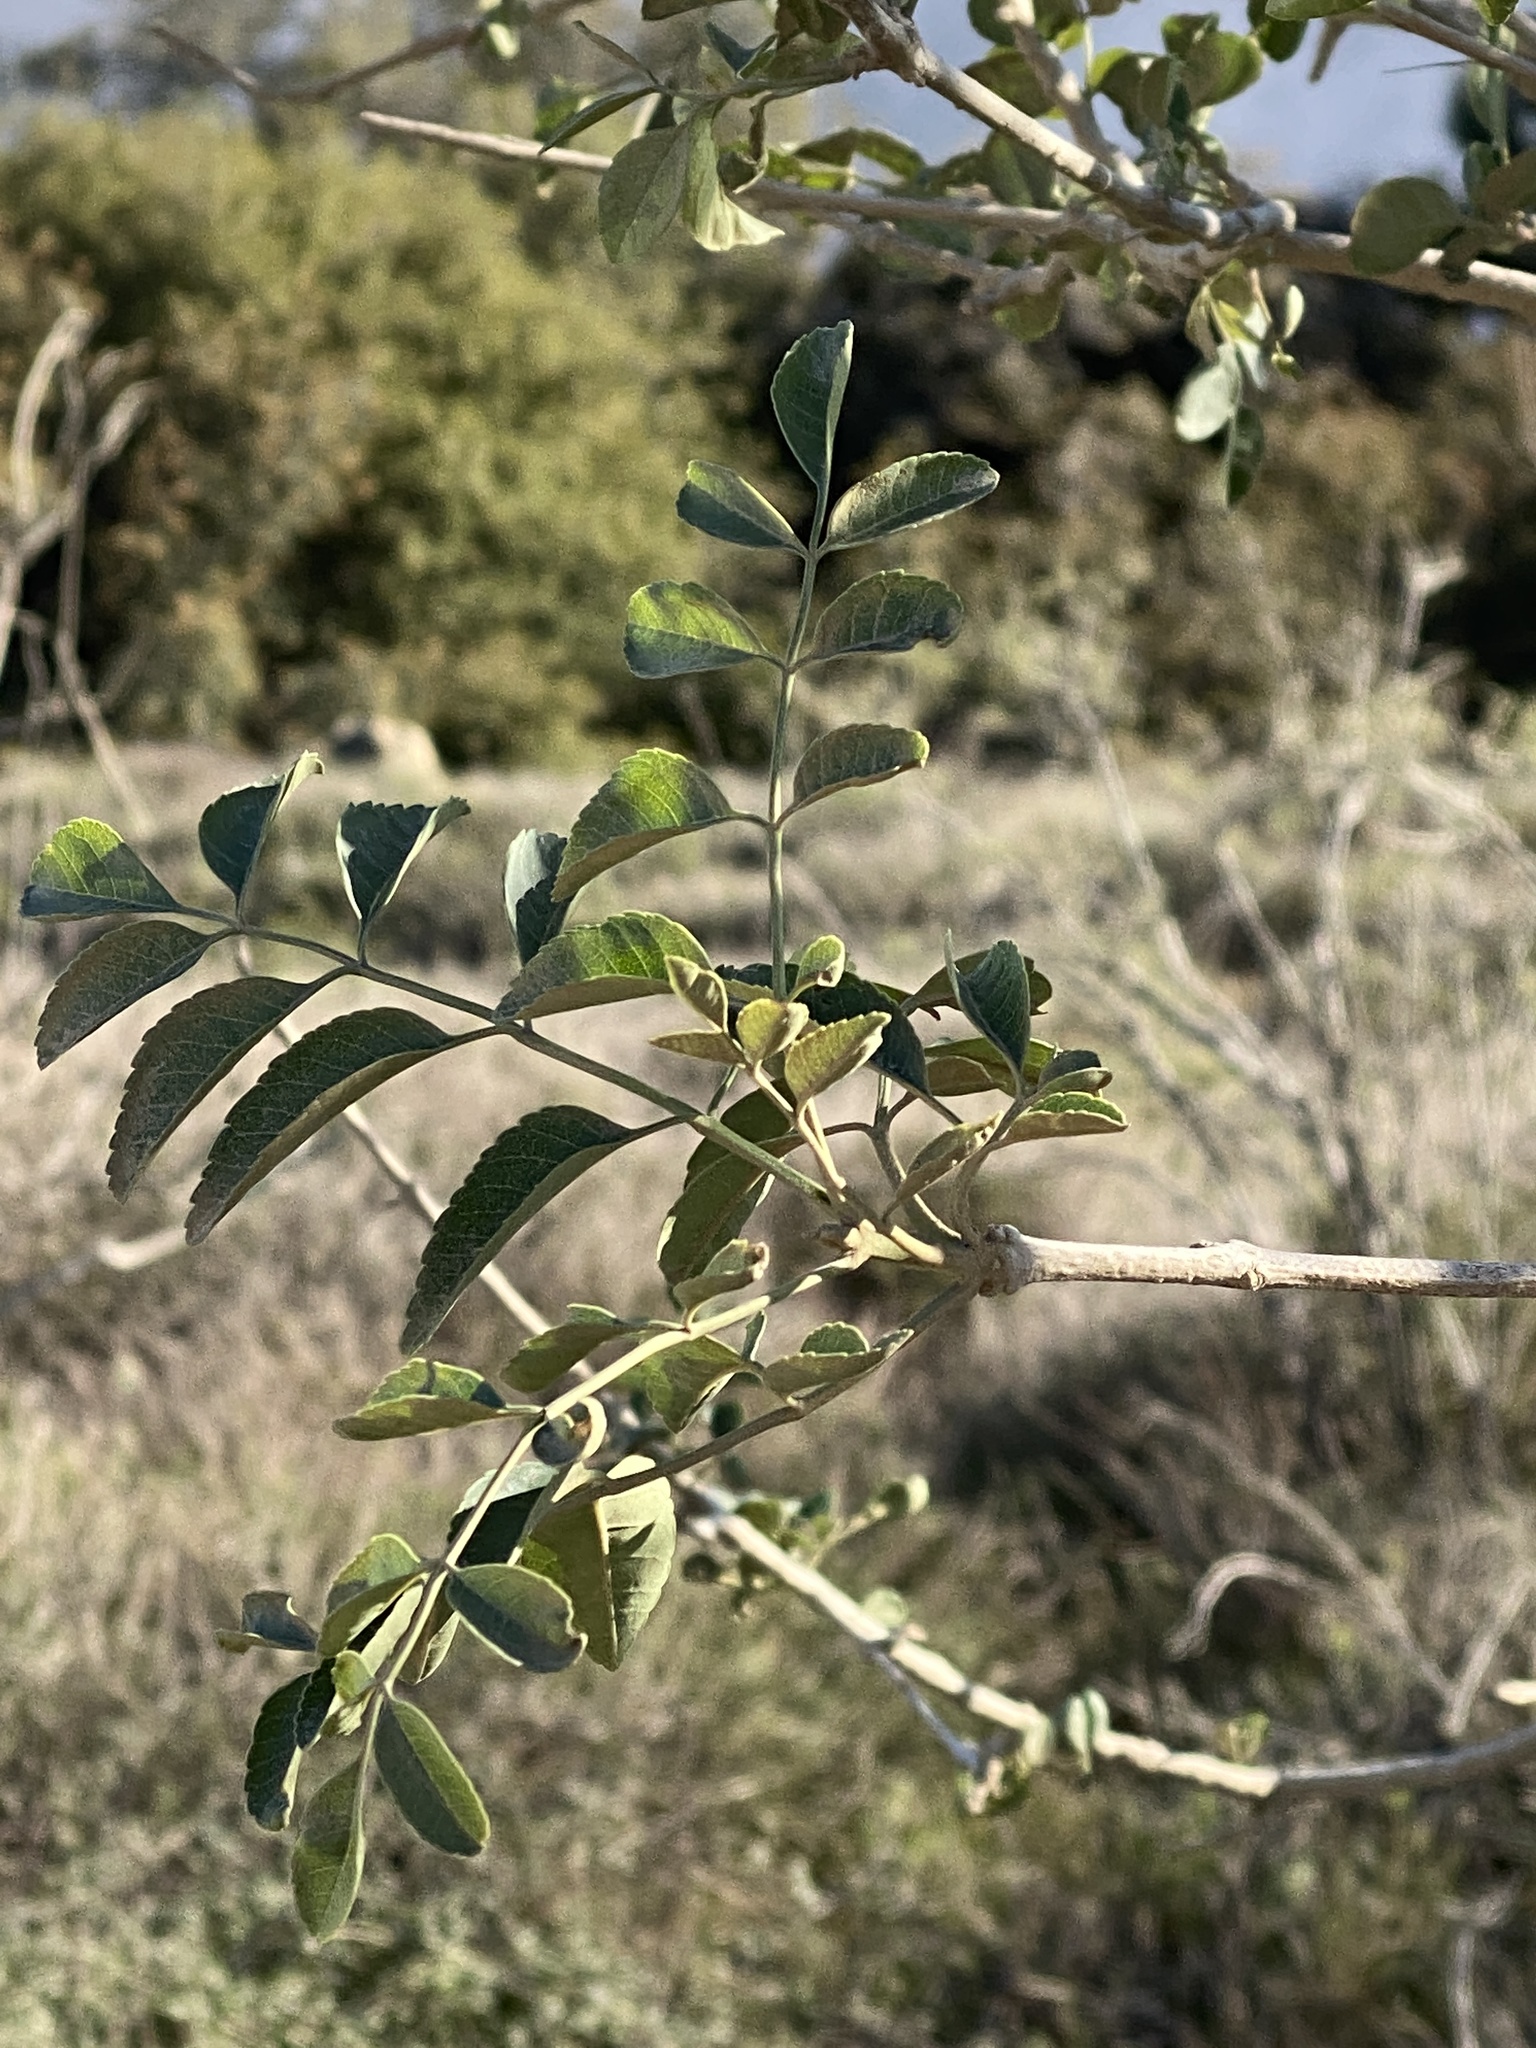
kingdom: Plantae
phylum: Tracheophyta
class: Magnoliopsida
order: Lamiales
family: Oleaceae
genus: Fraxinus
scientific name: Fraxinus dipetala
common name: California ash
